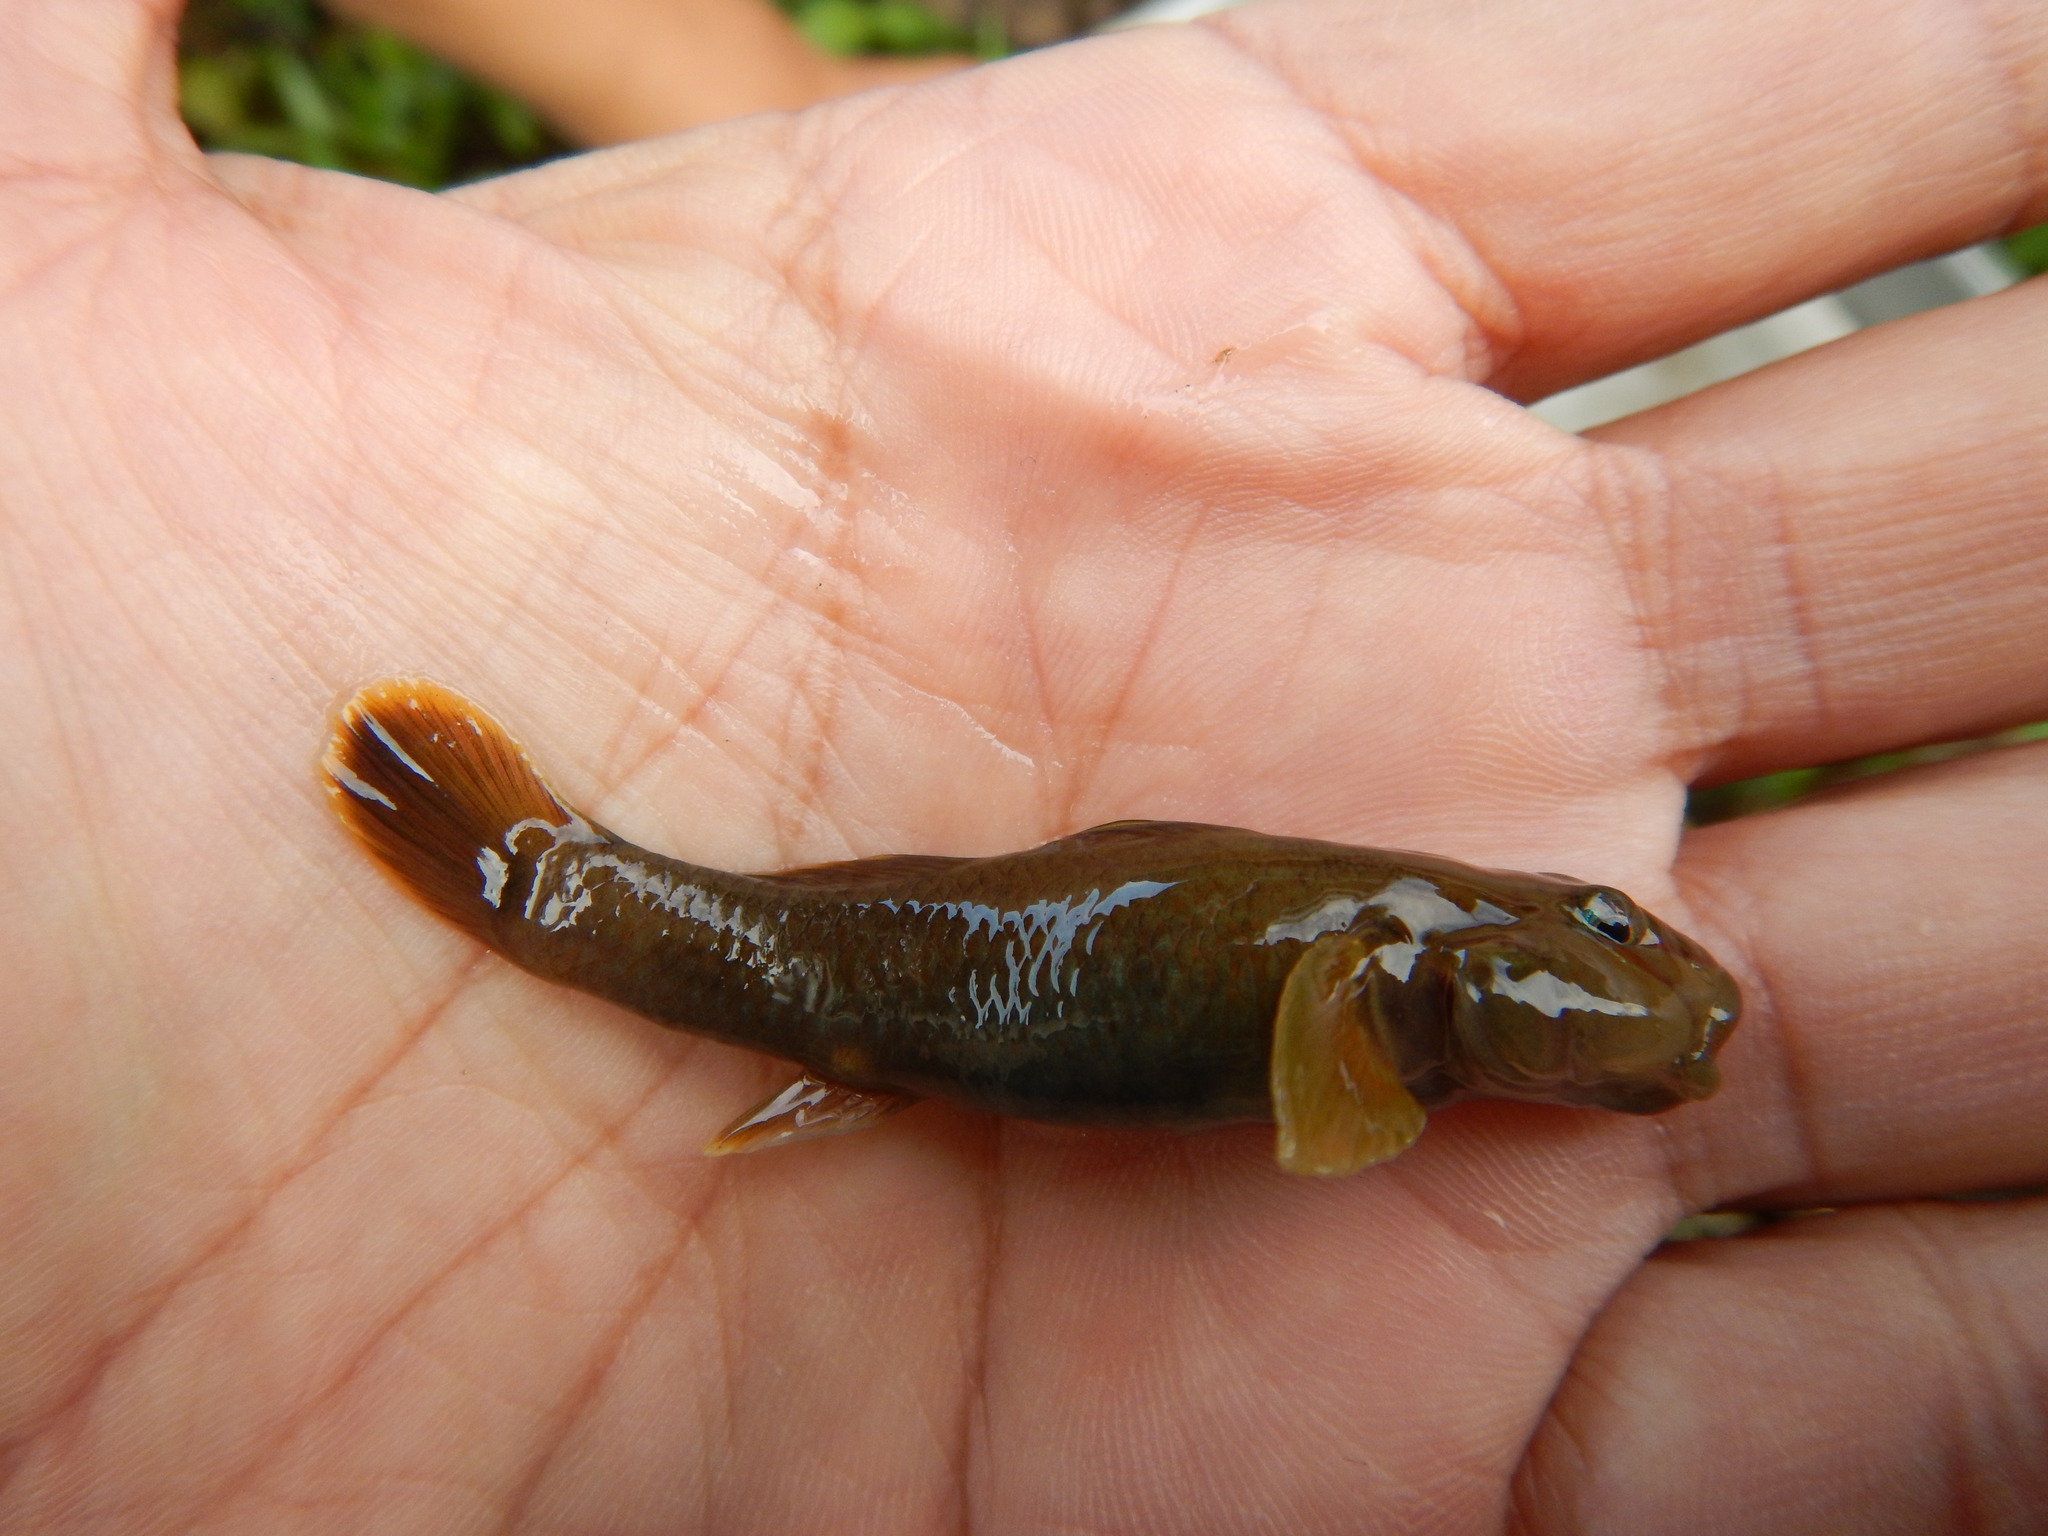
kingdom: Animalia
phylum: Chordata
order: Perciformes
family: Gobiidae
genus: Rhinogobius
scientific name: Rhinogobius candidianus
